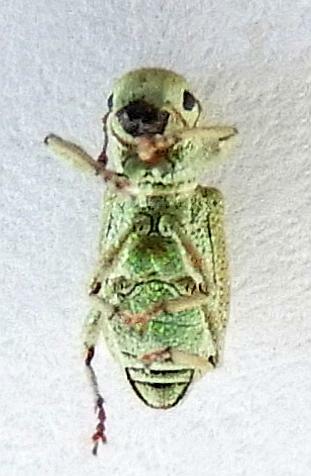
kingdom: Animalia
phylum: Arthropoda
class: Insecta
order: Coleoptera
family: Curculionidae
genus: Pandeleteinus
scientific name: Pandeleteinus submetallicus
